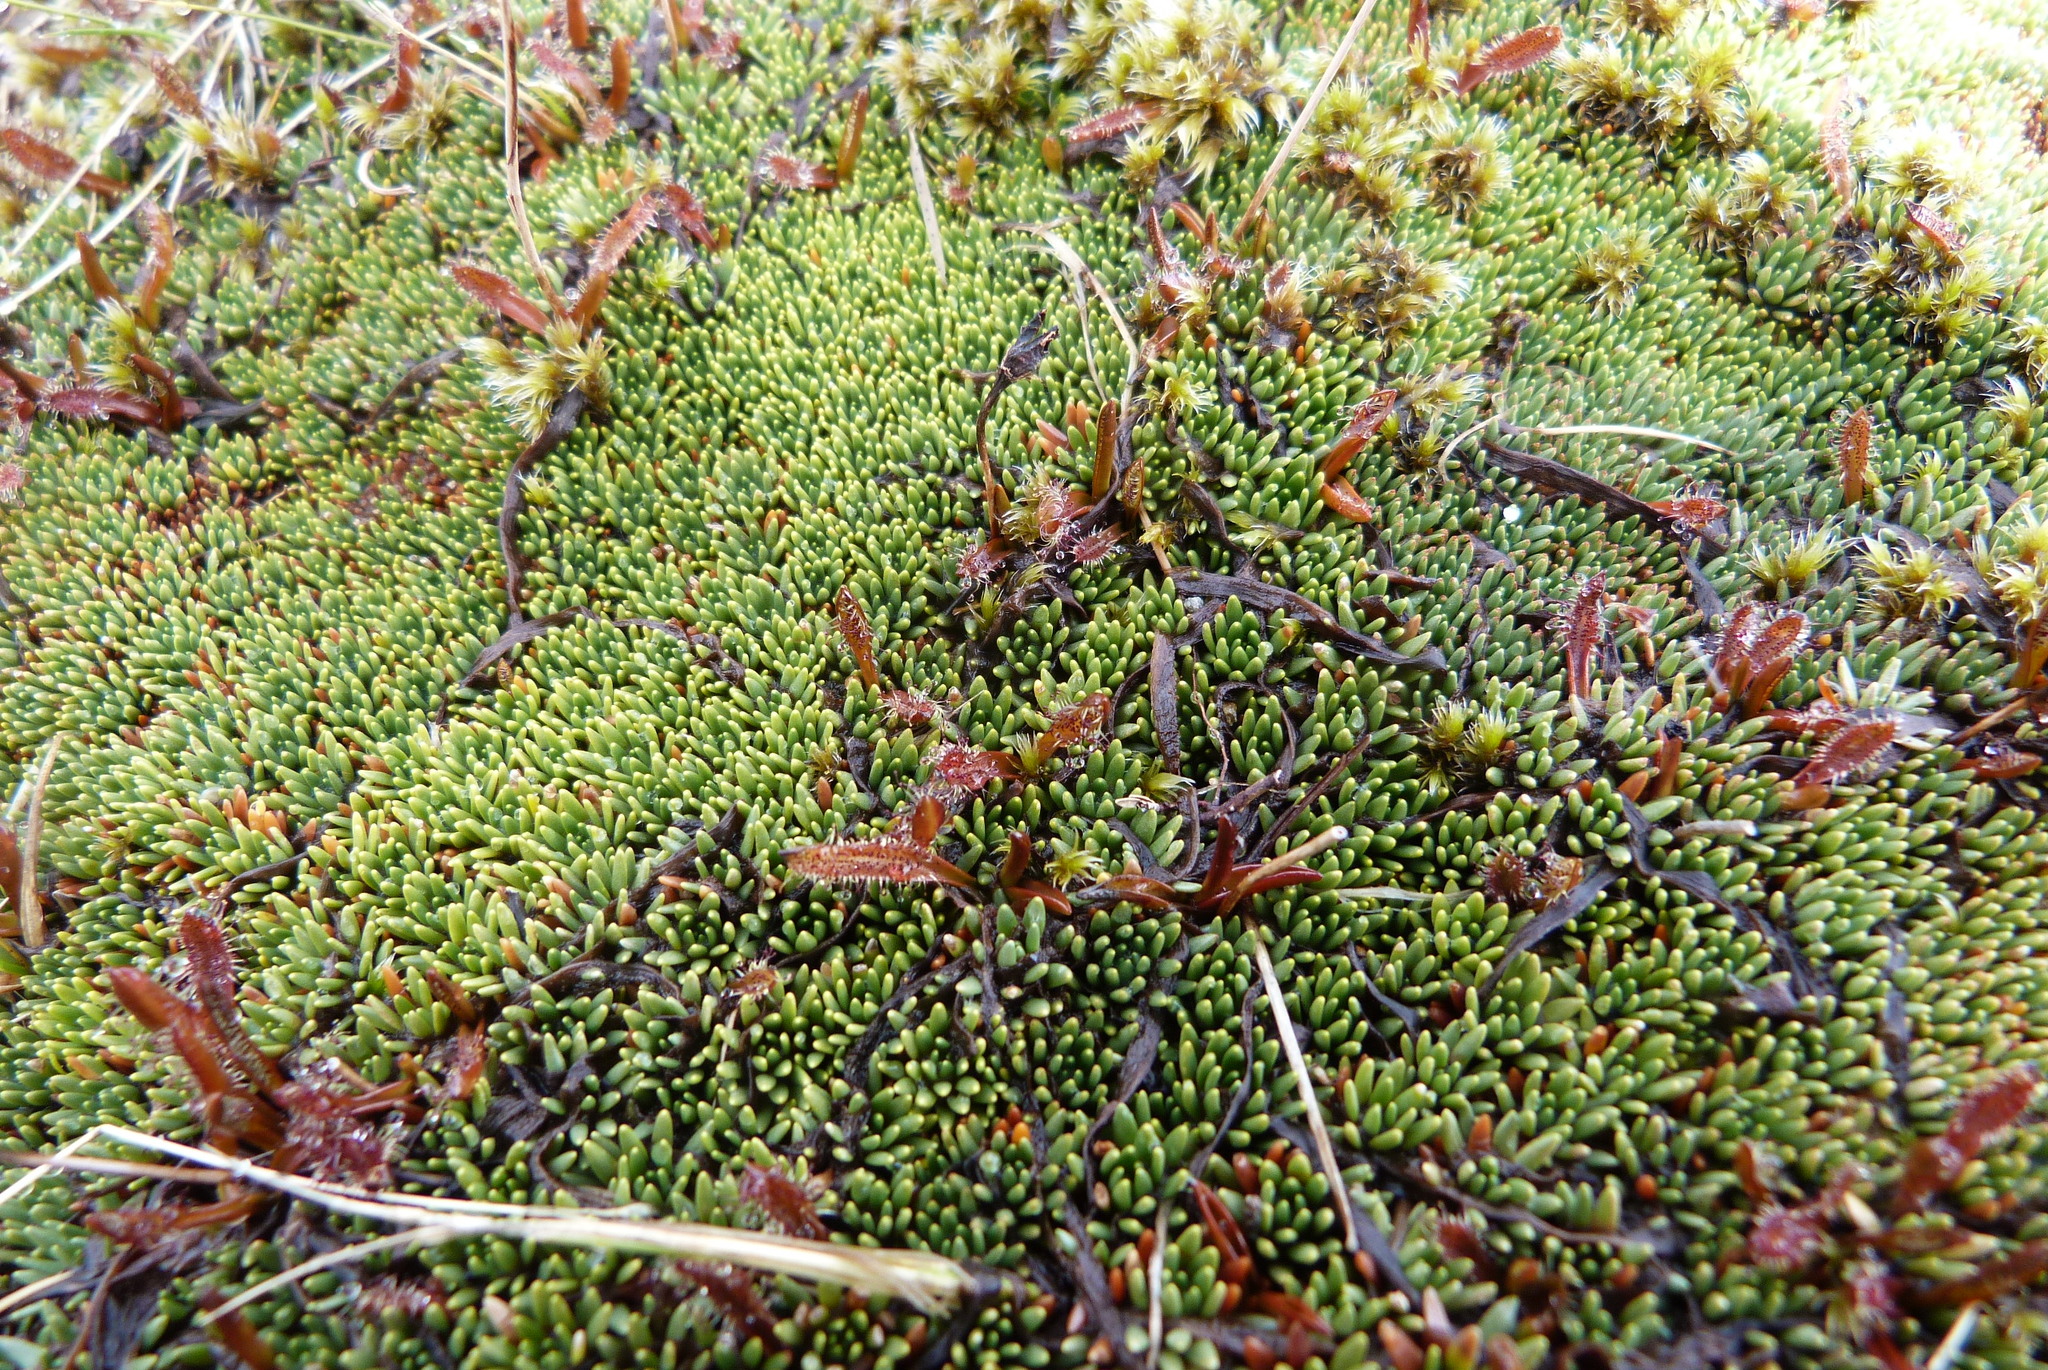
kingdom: Plantae
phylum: Tracheophyta
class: Magnoliopsida
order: Caryophyllales
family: Droseraceae
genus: Drosera
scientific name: Drosera arcturi
